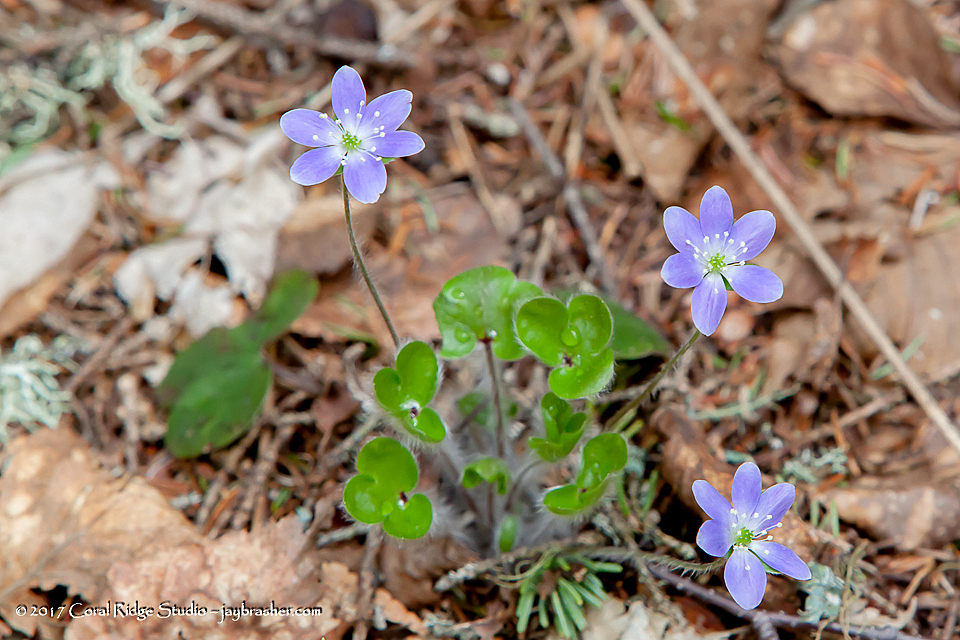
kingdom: Plantae
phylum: Tracheophyta
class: Magnoliopsida
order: Ranunculales
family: Ranunculaceae
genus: Hepatica
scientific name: Hepatica americana
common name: American hepatica
